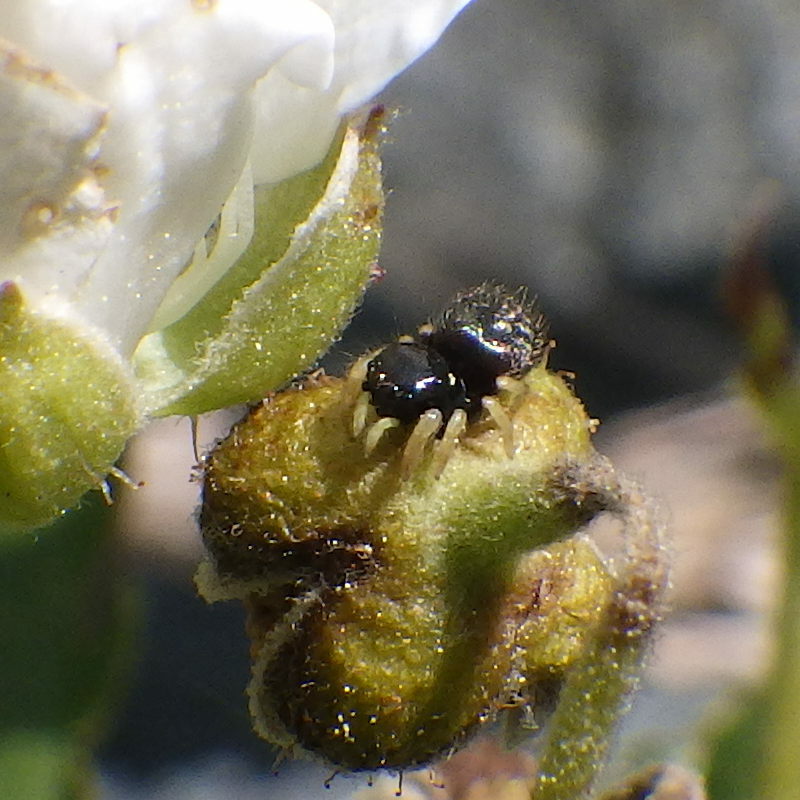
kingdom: Animalia
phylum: Arthropoda
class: Arachnida
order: Araneae
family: Salticidae
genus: Phidippus
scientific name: Phidippus whitmani
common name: Whitman's jumping spider
